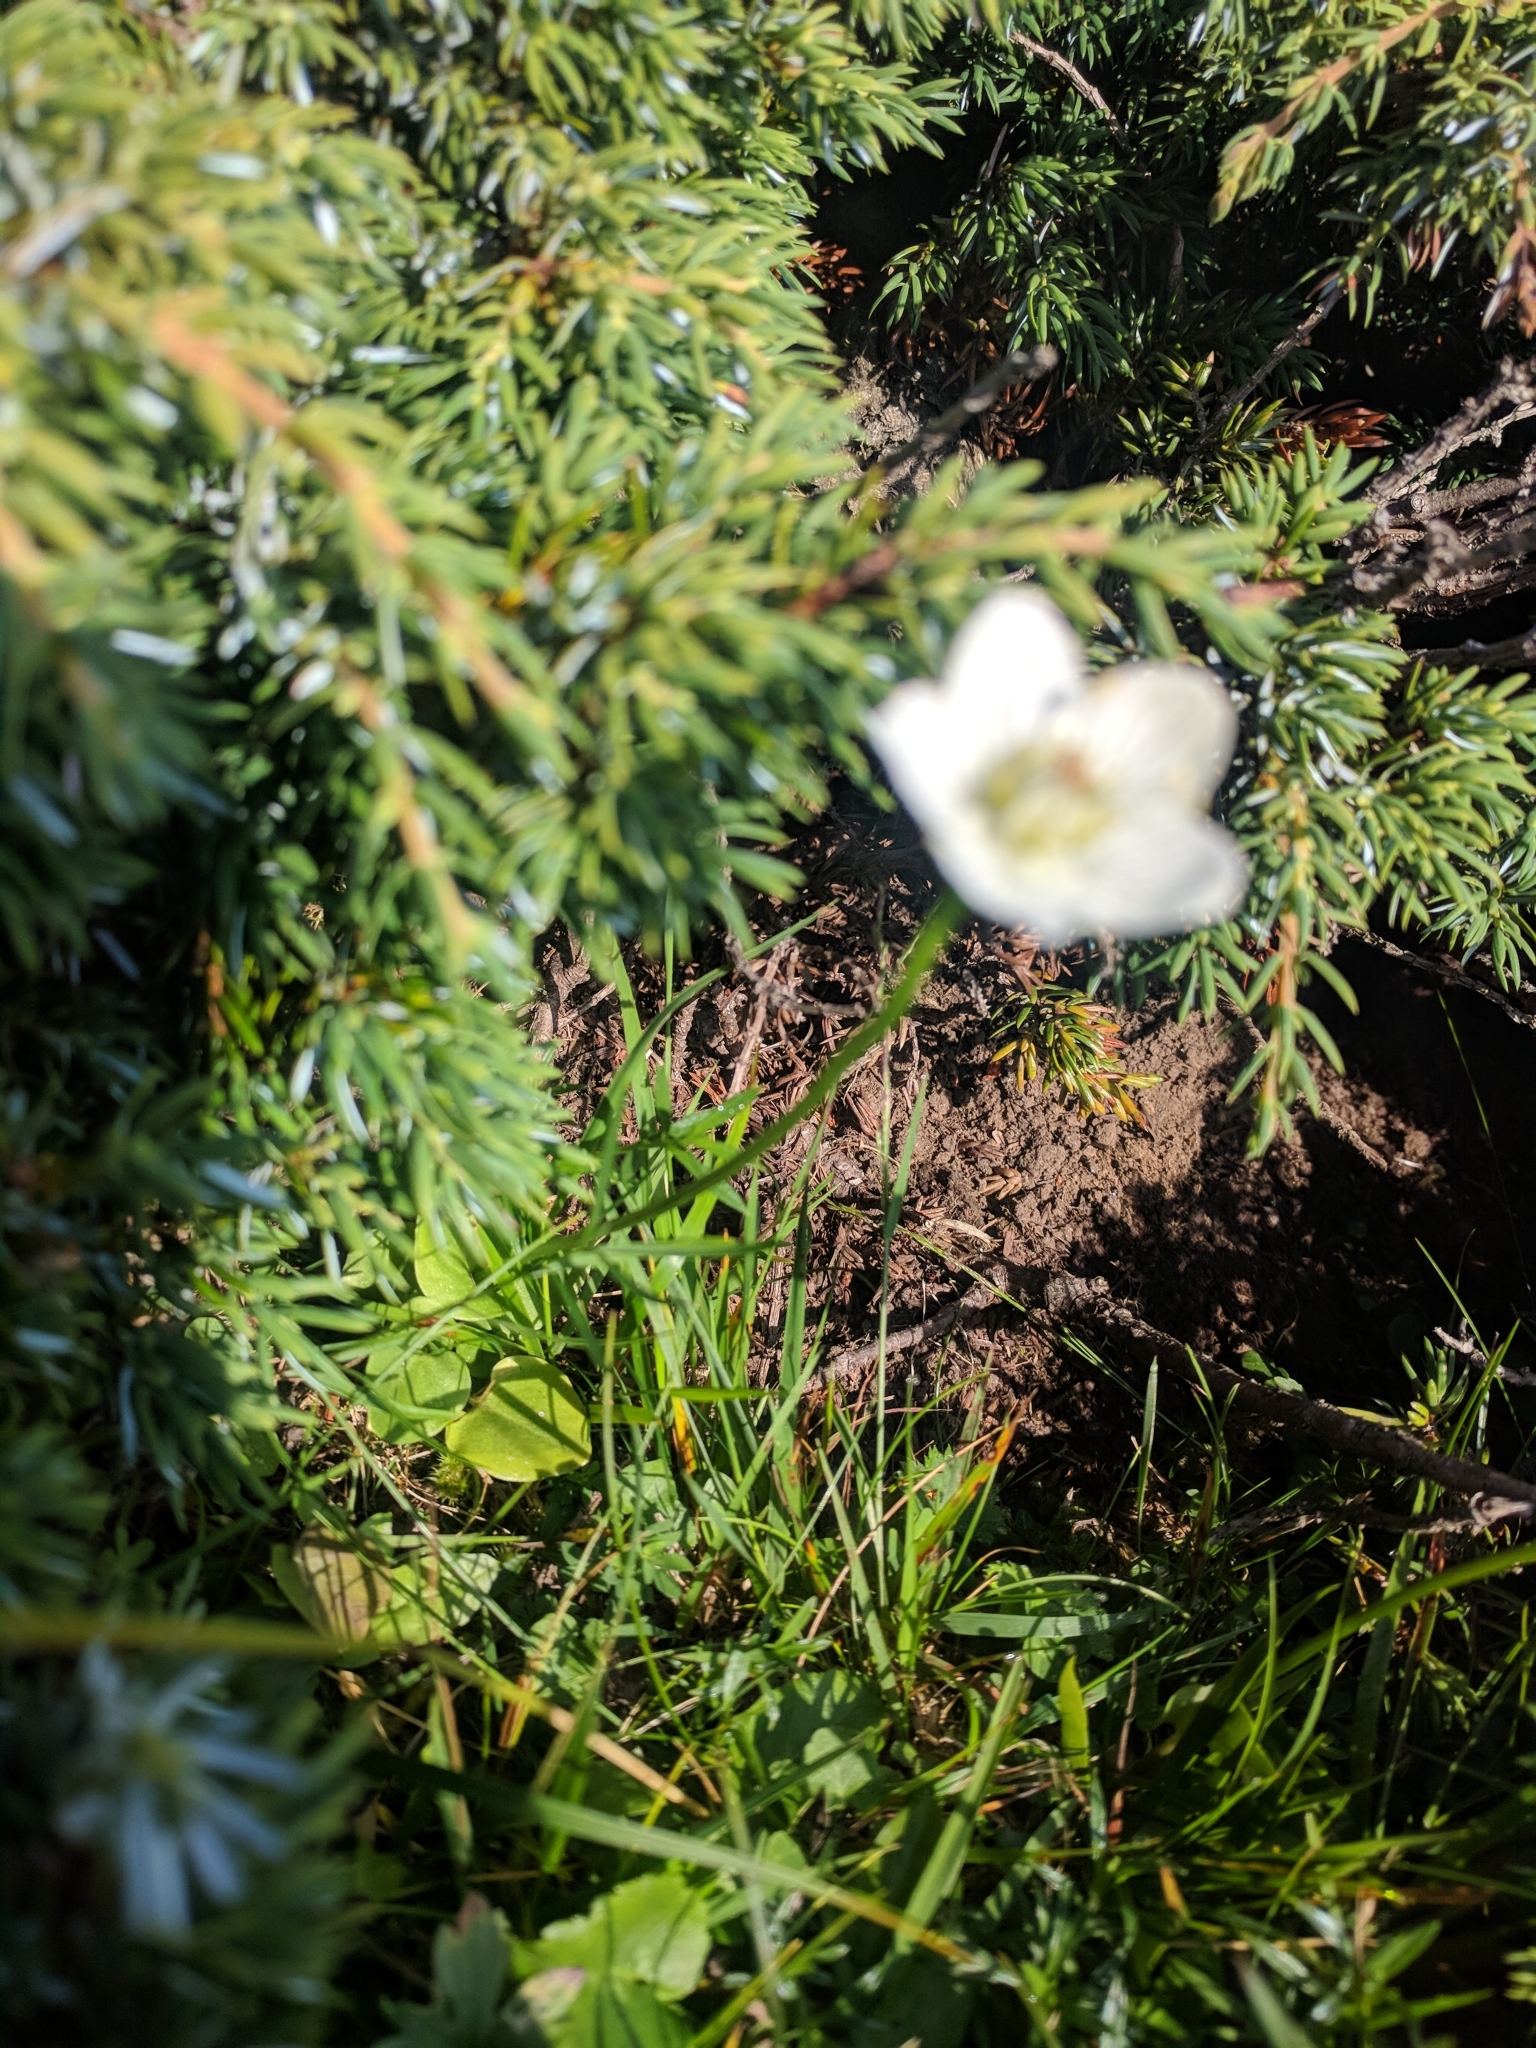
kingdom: Plantae
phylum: Tracheophyta
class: Magnoliopsida
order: Celastrales
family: Parnassiaceae
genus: Parnassia
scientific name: Parnassia palustris
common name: Grass-of-parnassus
